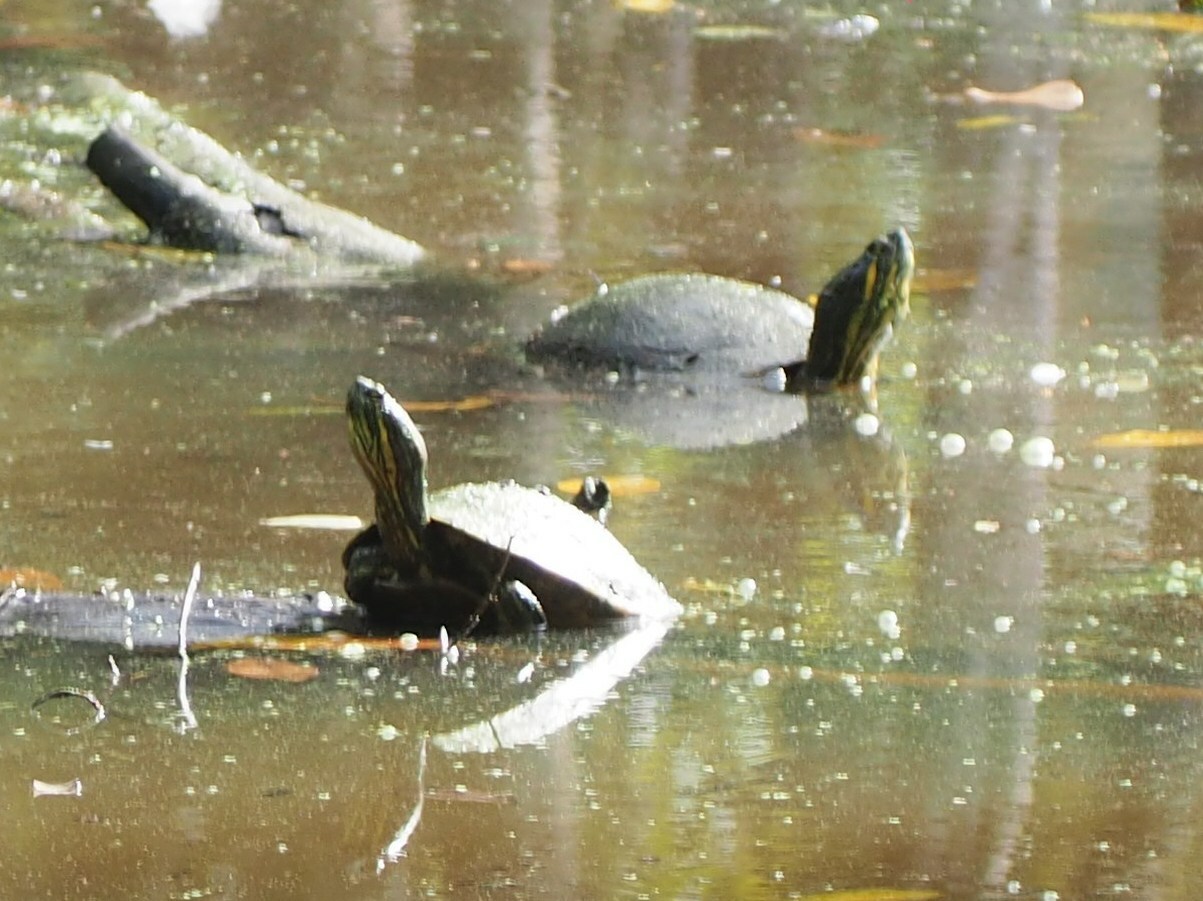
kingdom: Animalia
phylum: Chordata
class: Testudines
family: Emydidae
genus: Trachemys
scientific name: Trachemys venusta
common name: Mesoamerican slider
